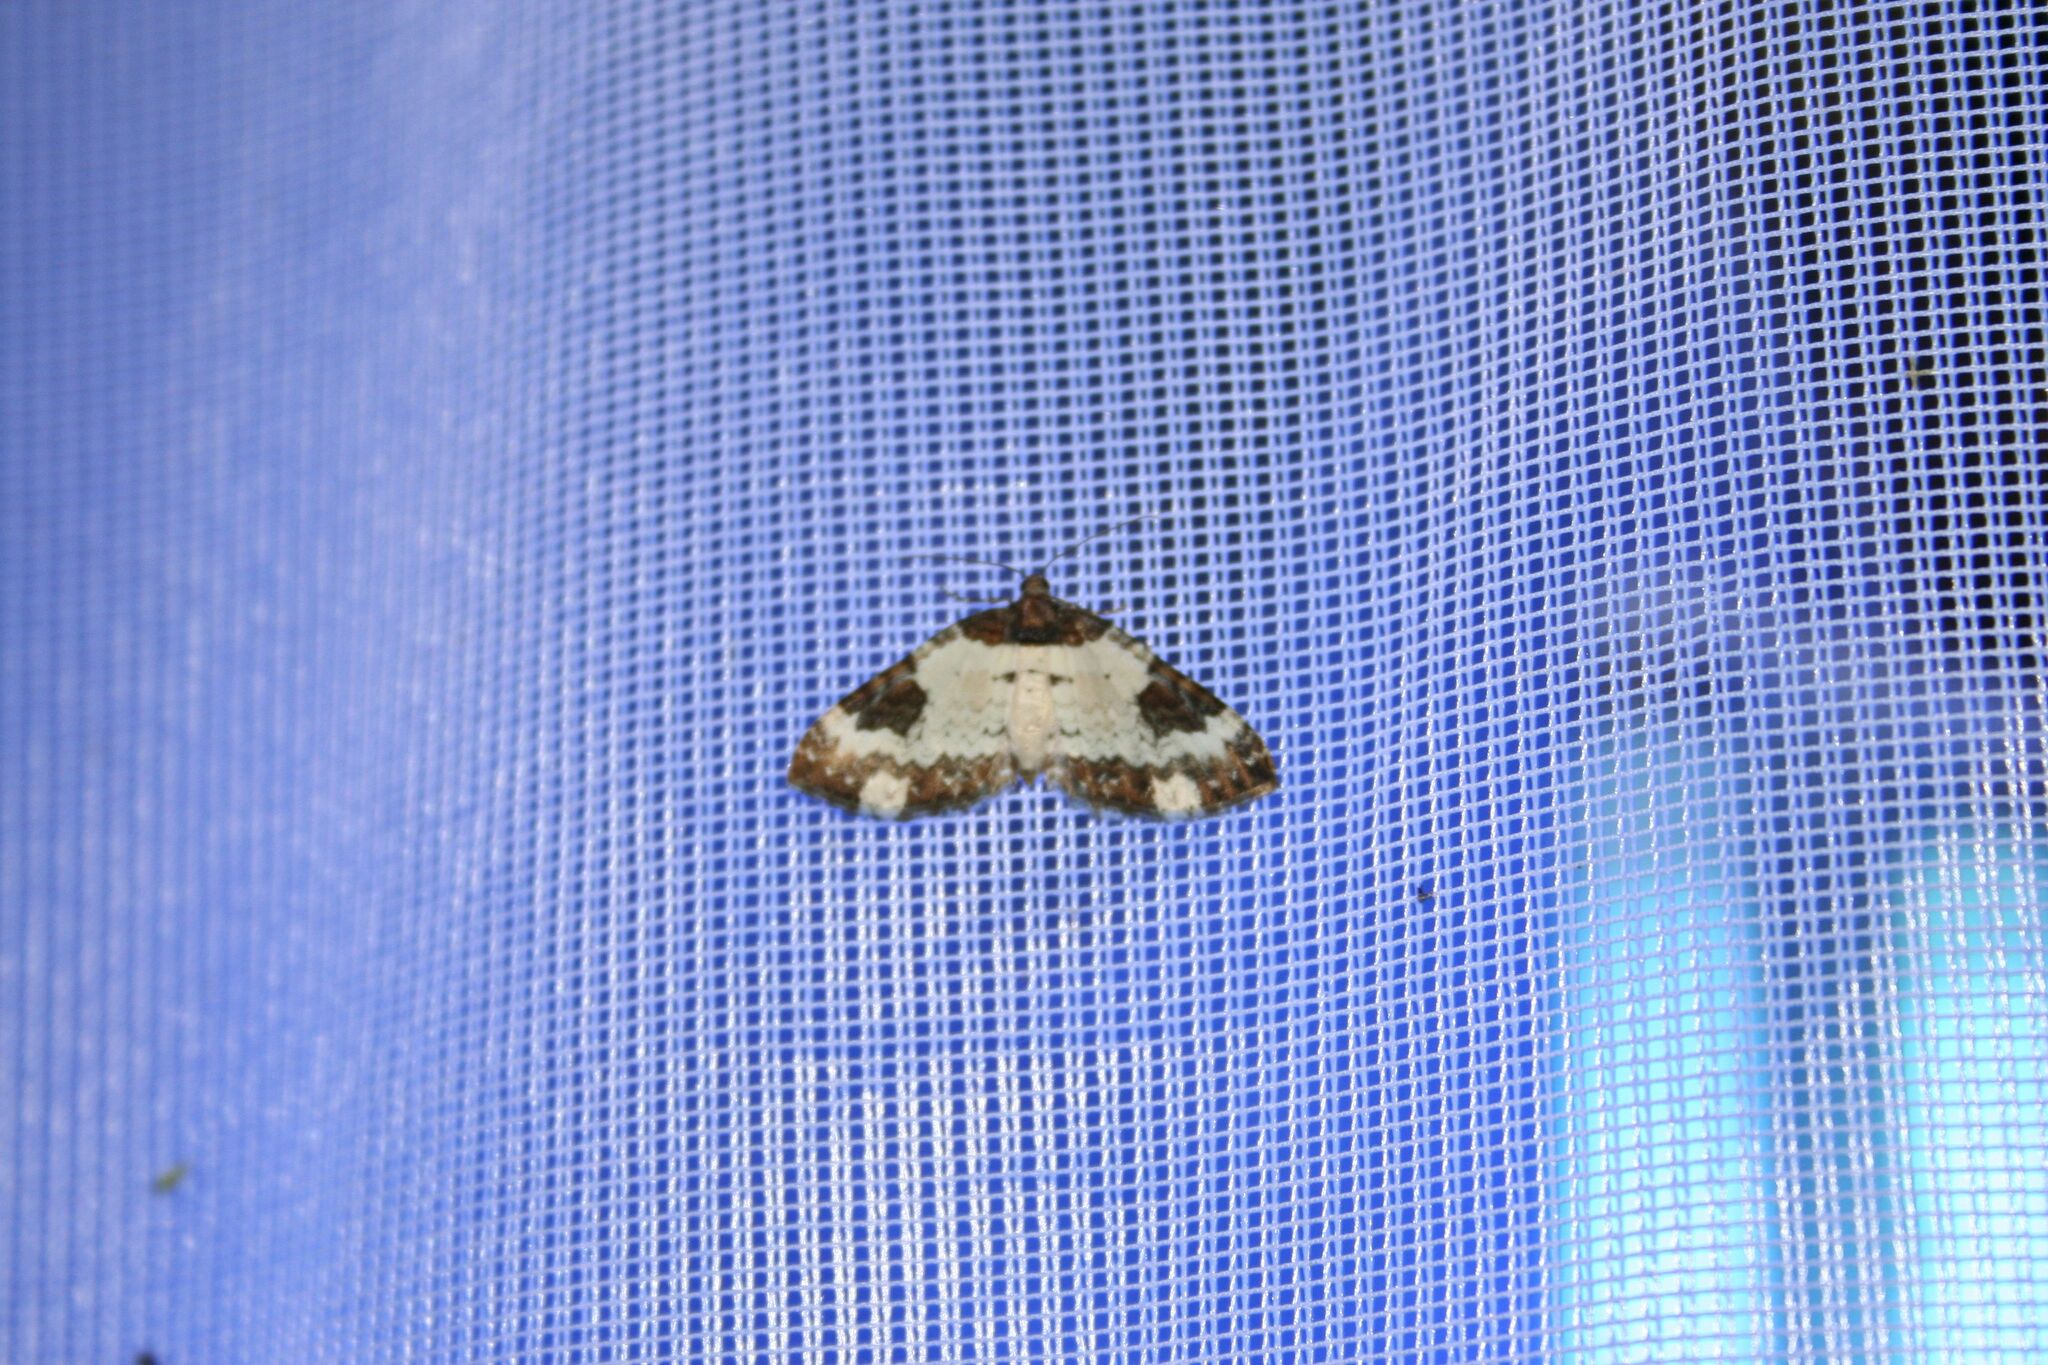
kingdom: Animalia
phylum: Arthropoda
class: Insecta
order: Lepidoptera
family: Geometridae
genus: Melanthia
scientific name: Melanthia procellata
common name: Pretty chalk carpet
